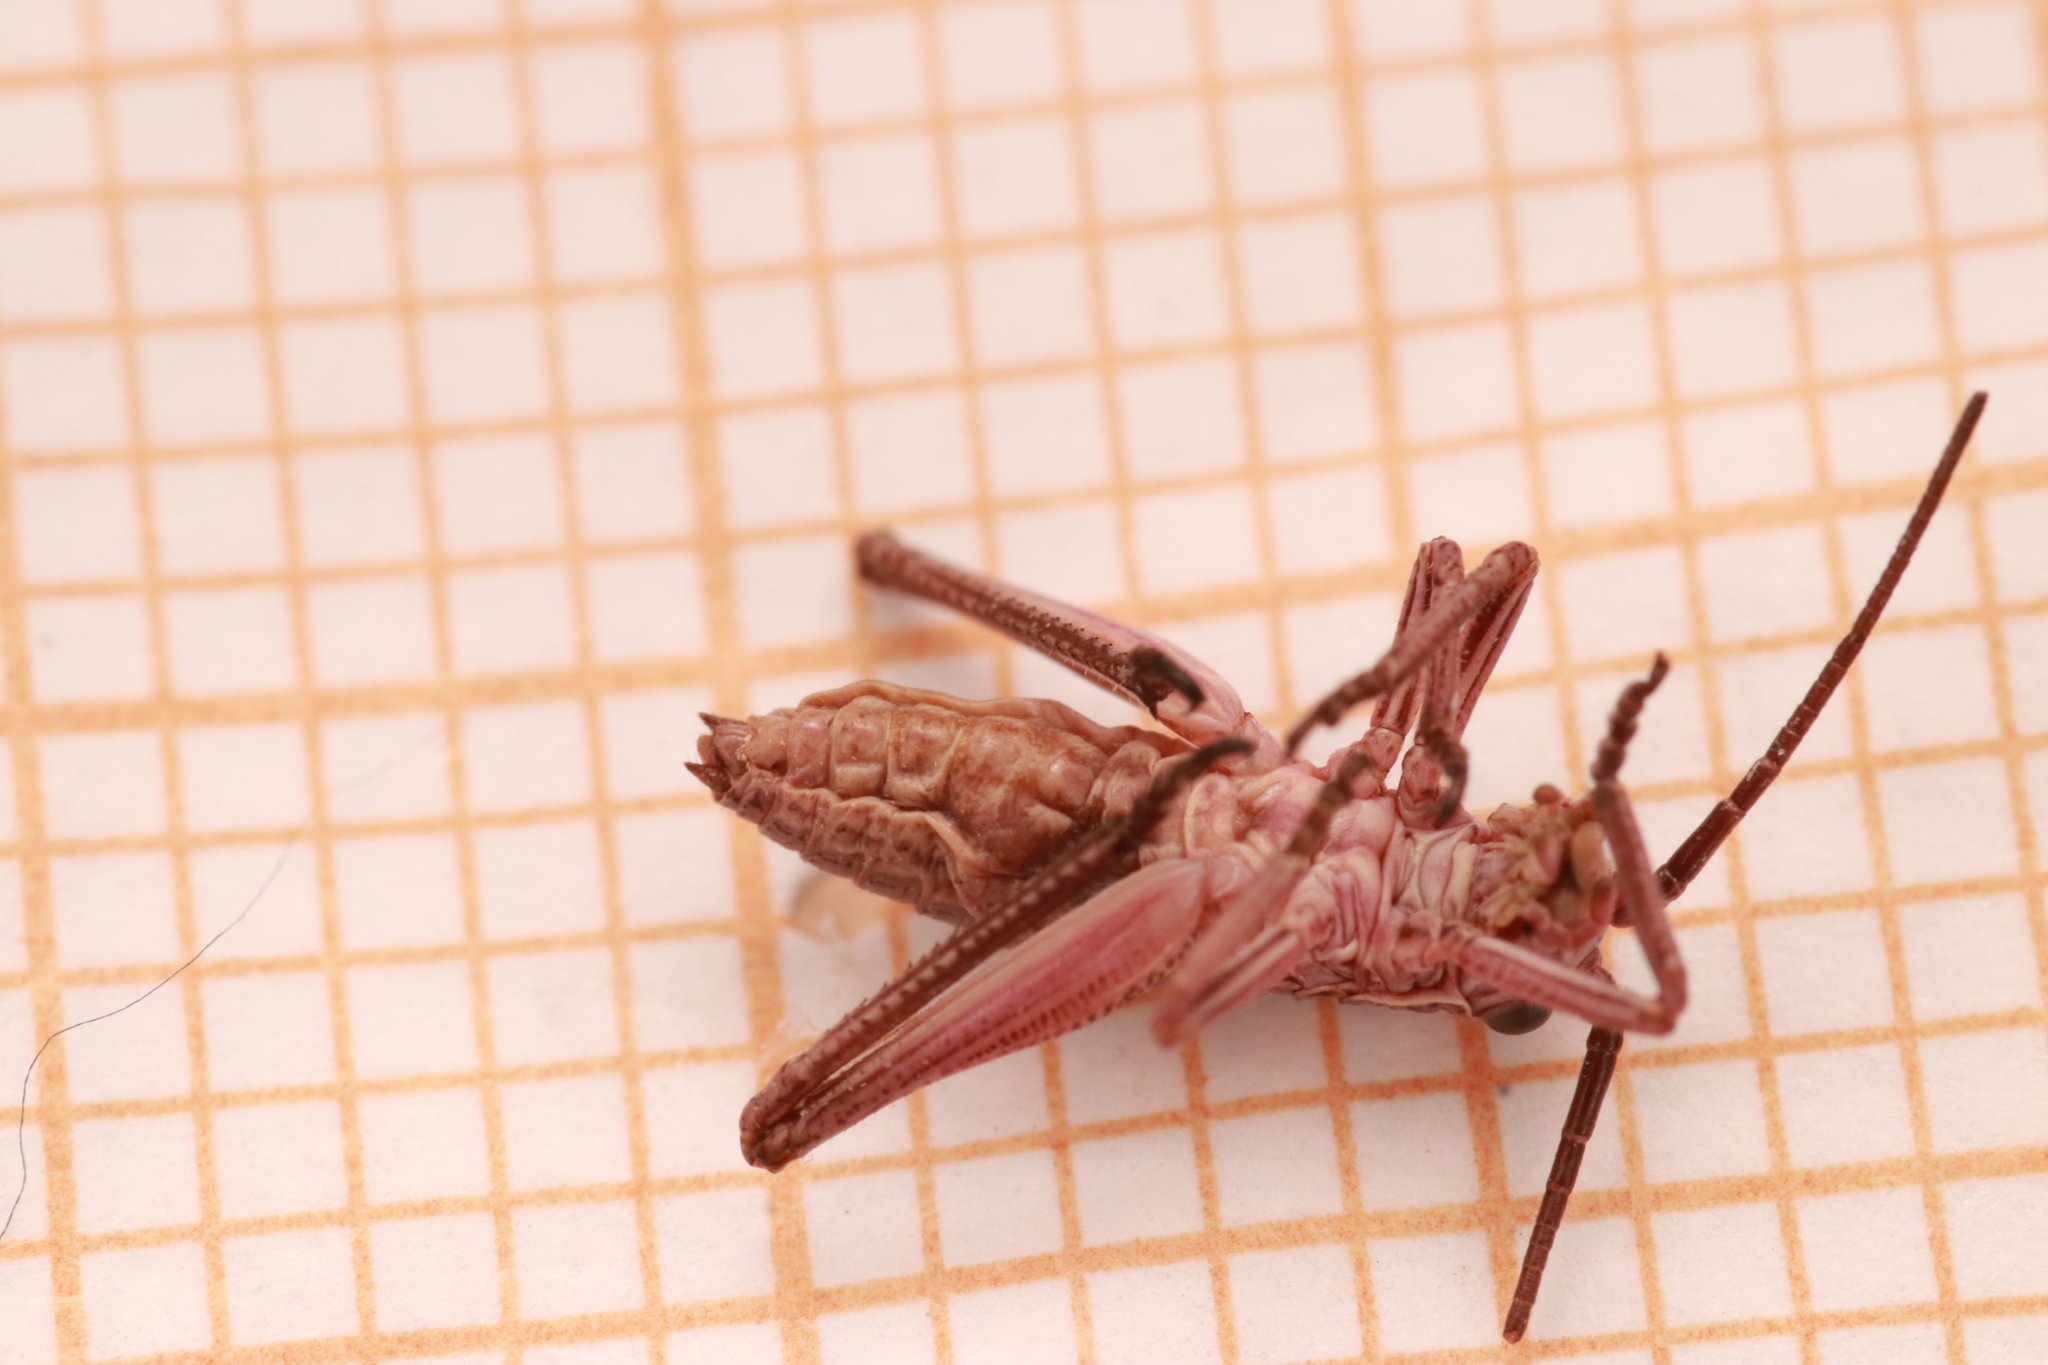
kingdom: Animalia
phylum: Arthropoda
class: Insecta
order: Orthoptera
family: Tettigoniidae
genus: Ephippiger
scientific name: Ephippiger diurnus
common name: Western saddle bush-cricket
